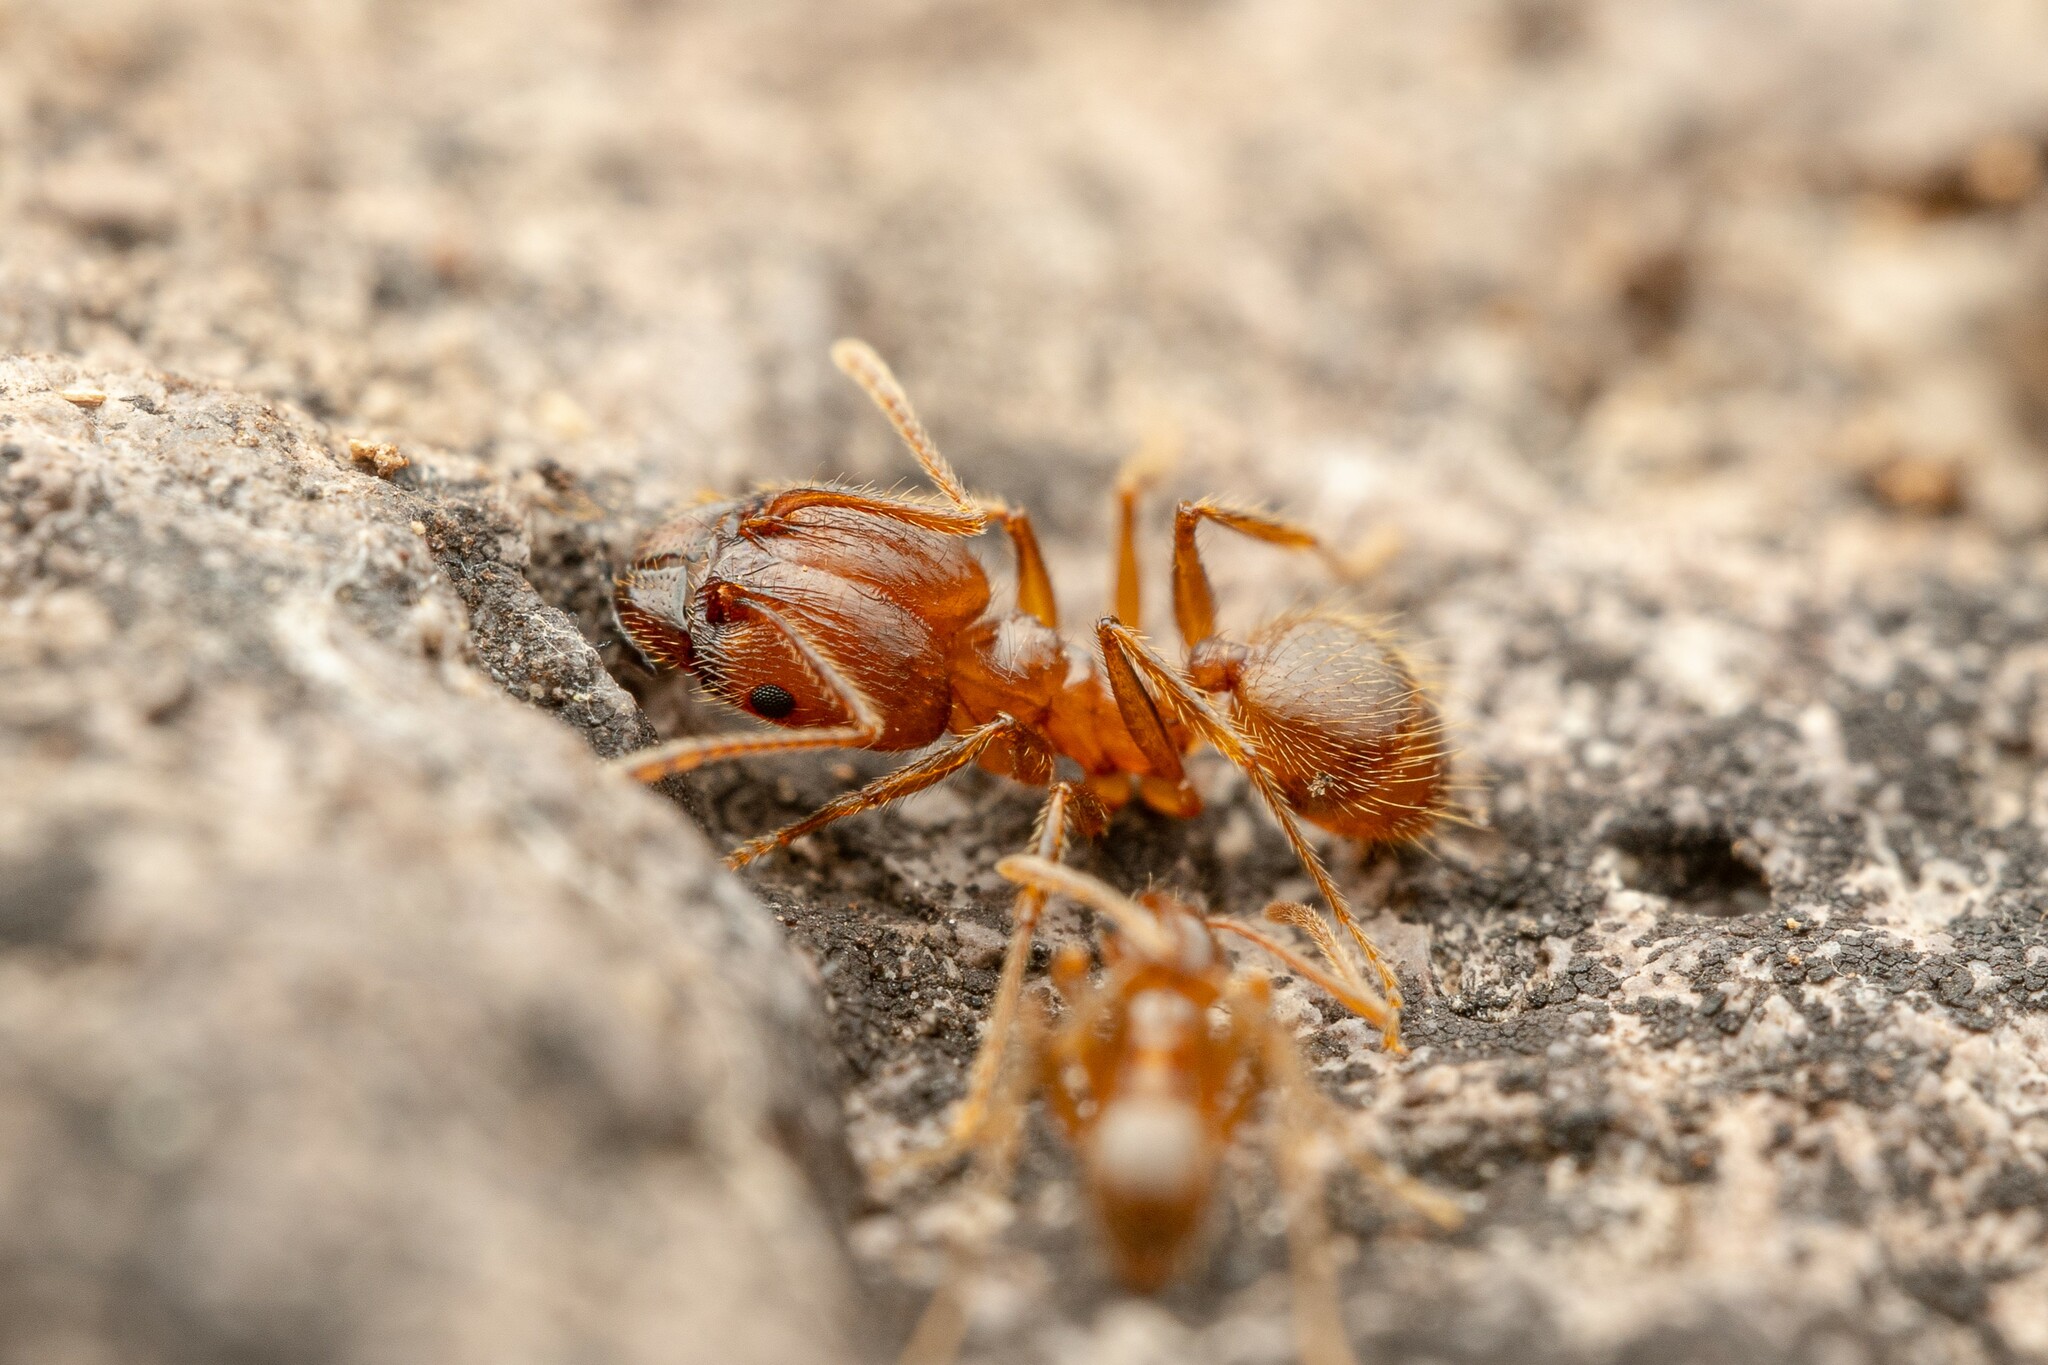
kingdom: Animalia
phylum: Arthropoda
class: Insecta
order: Hymenoptera
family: Formicidae
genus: Pheidole
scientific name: Pheidole hyatti
